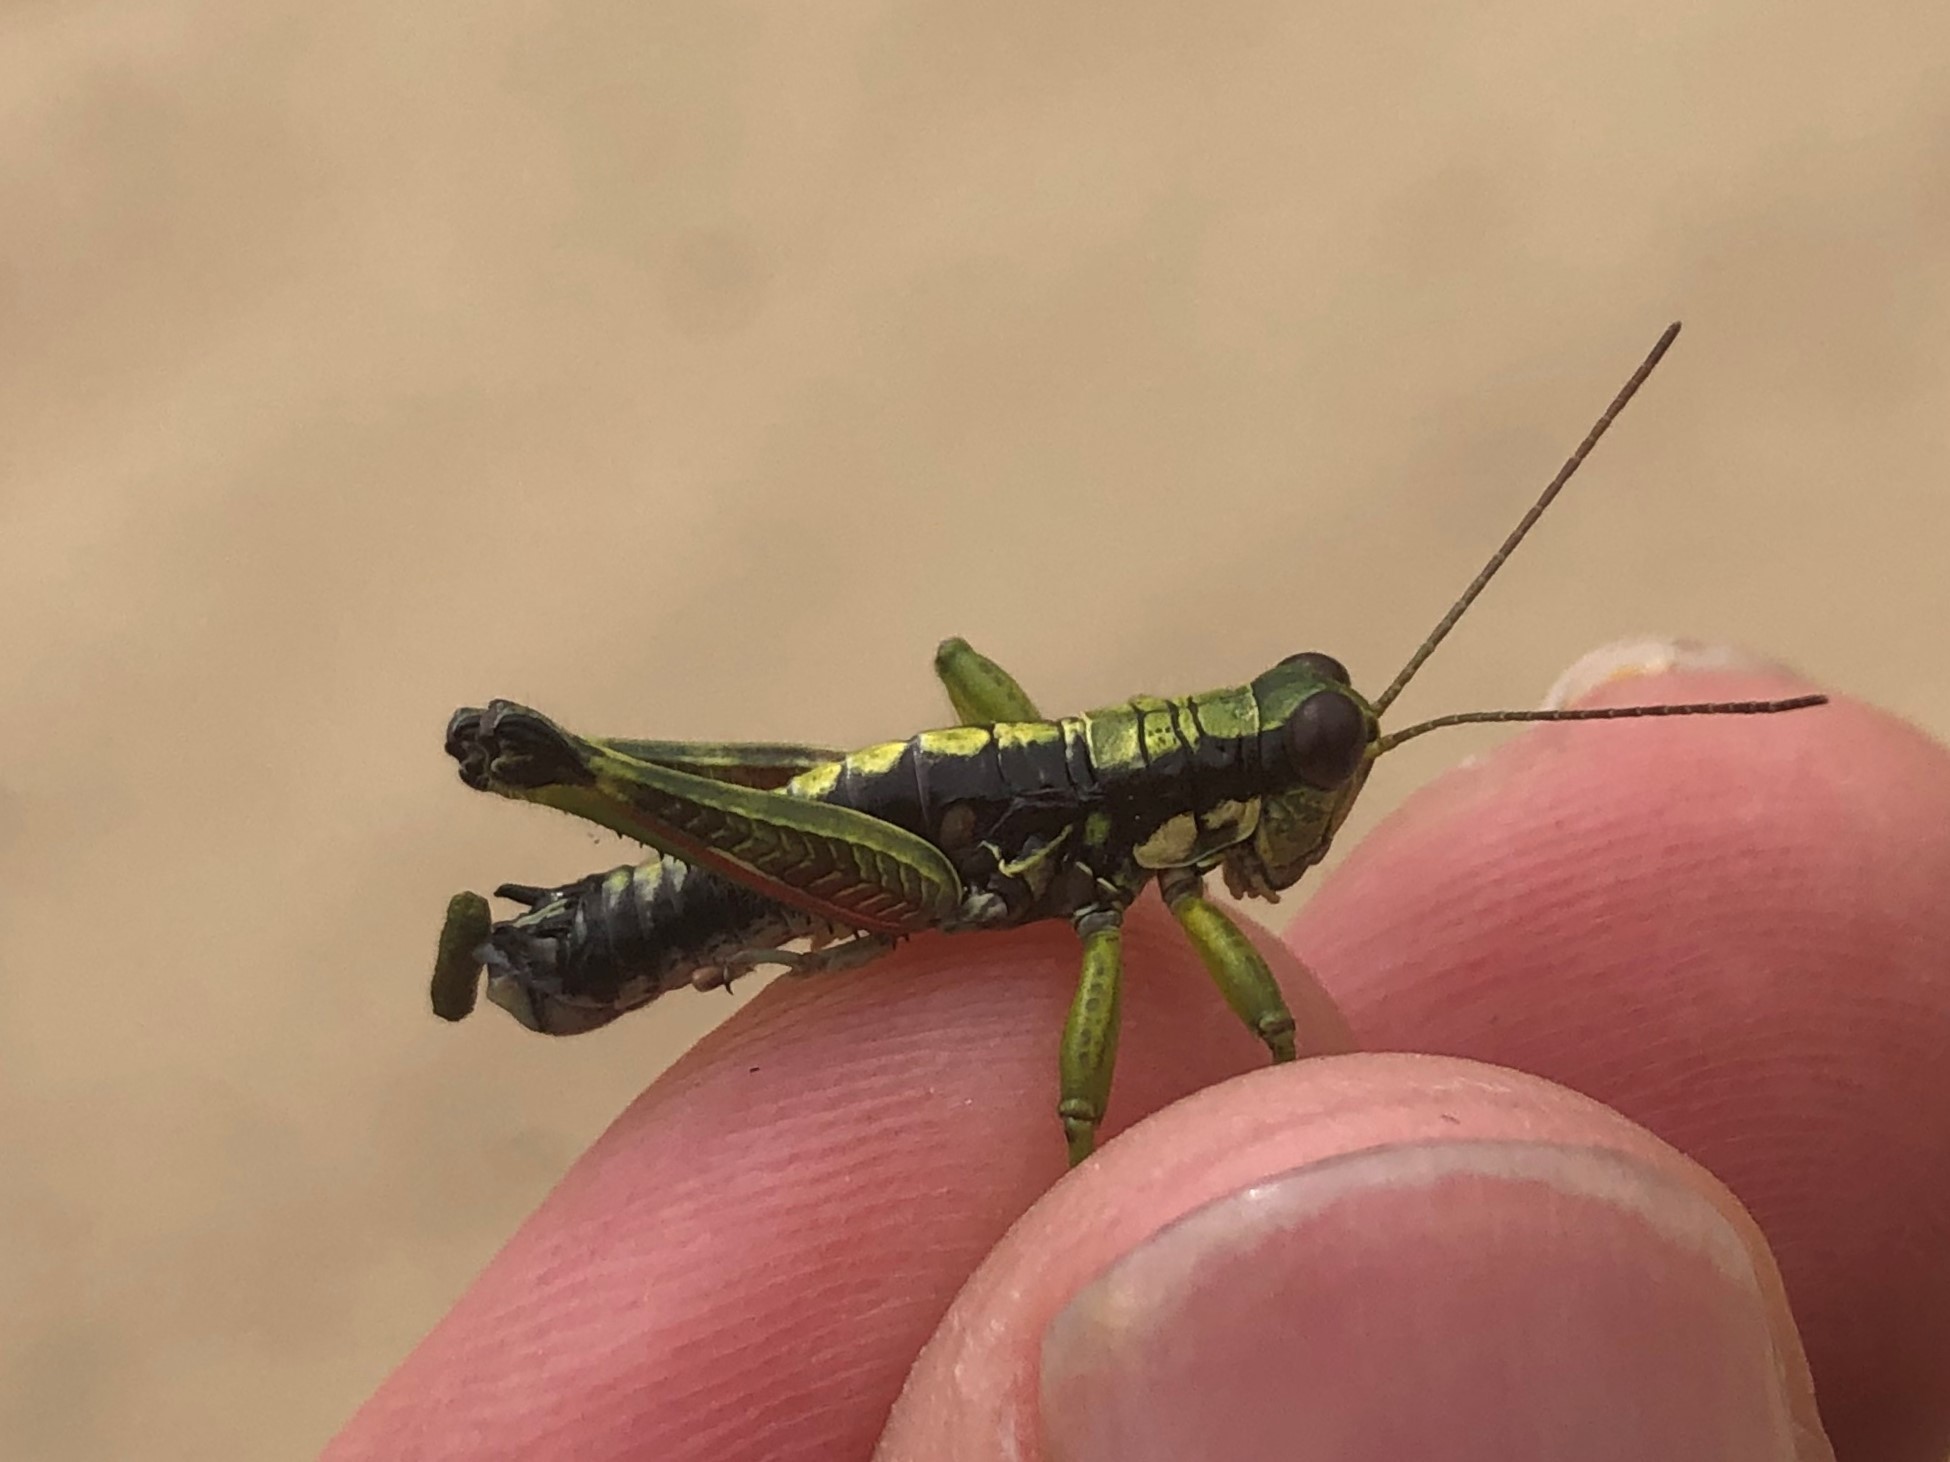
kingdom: Animalia
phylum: Arthropoda
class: Insecta
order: Orthoptera
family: Acrididae
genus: Booneacris
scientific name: Booneacris glacialis
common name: Wingless mountain grasshopper
